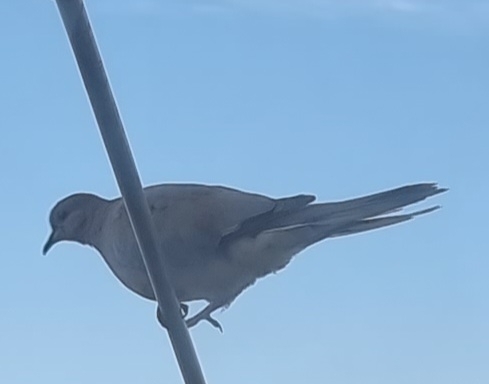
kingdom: Animalia
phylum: Chordata
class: Aves
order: Columbiformes
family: Columbidae
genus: Spilopelia
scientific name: Spilopelia senegalensis
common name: Laughing dove
